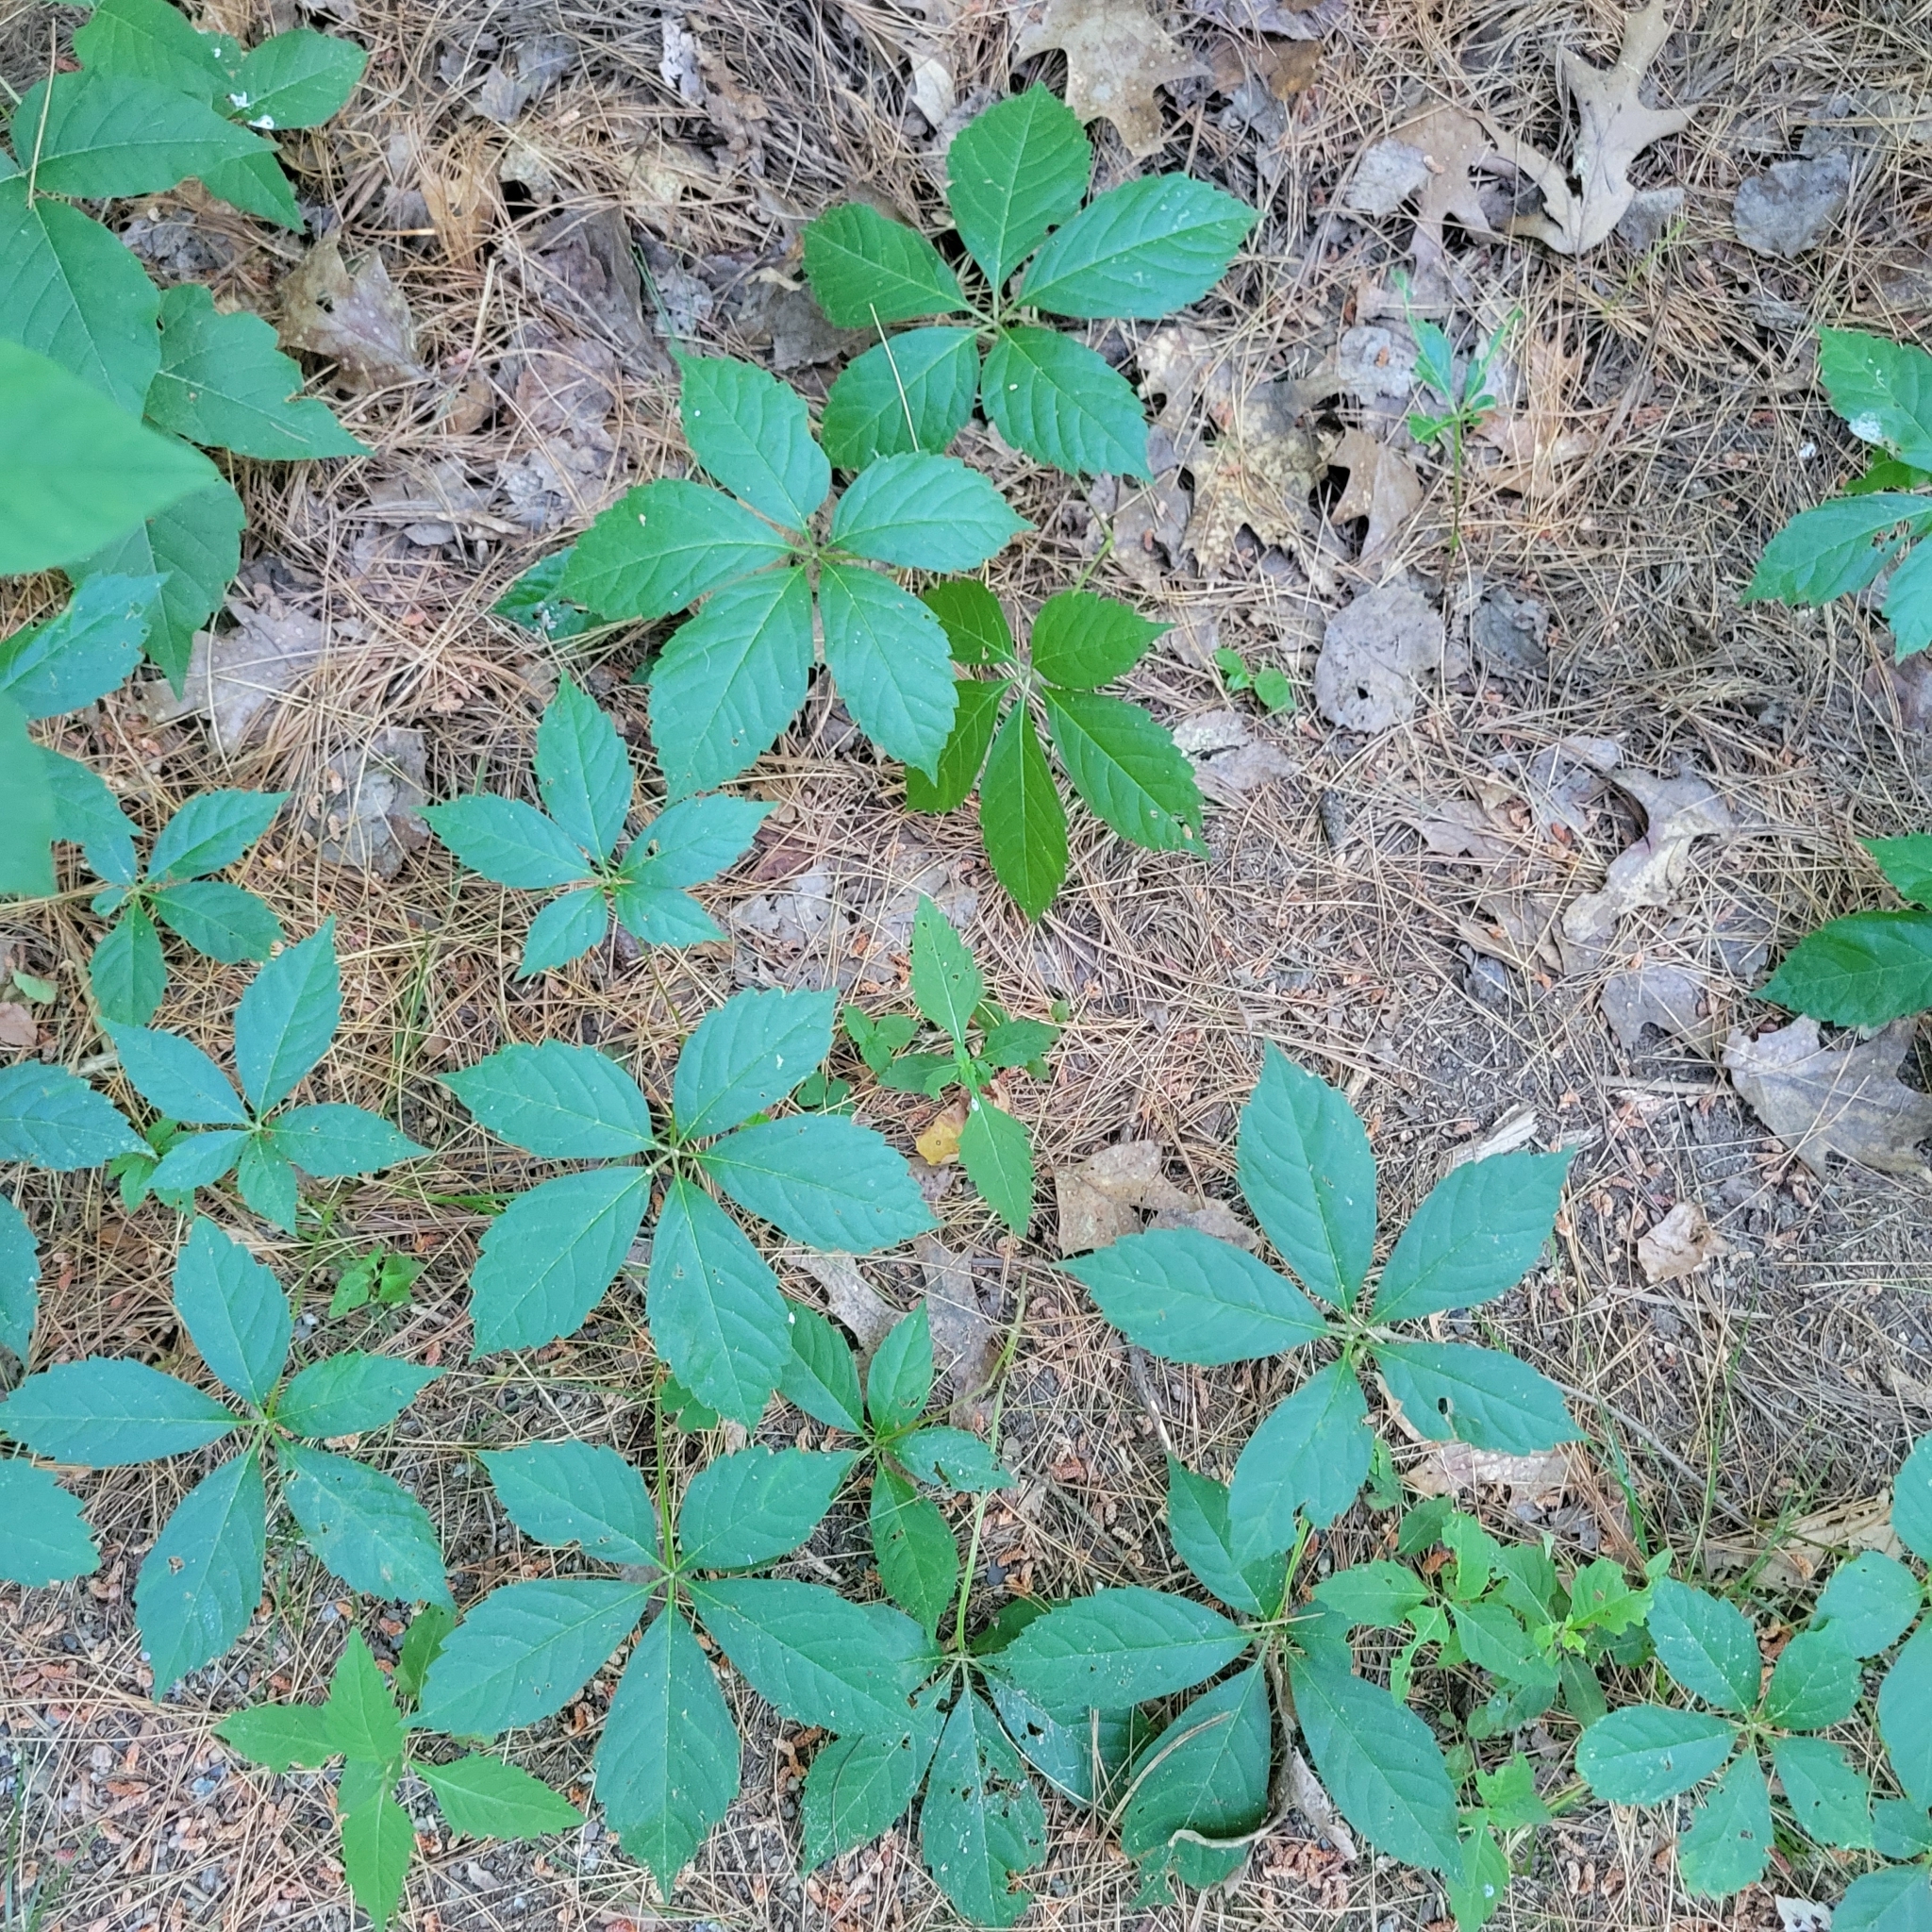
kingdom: Plantae
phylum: Tracheophyta
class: Magnoliopsida
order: Vitales
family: Vitaceae
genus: Parthenocissus
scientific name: Parthenocissus quinquefolia
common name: Virginia-creeper
